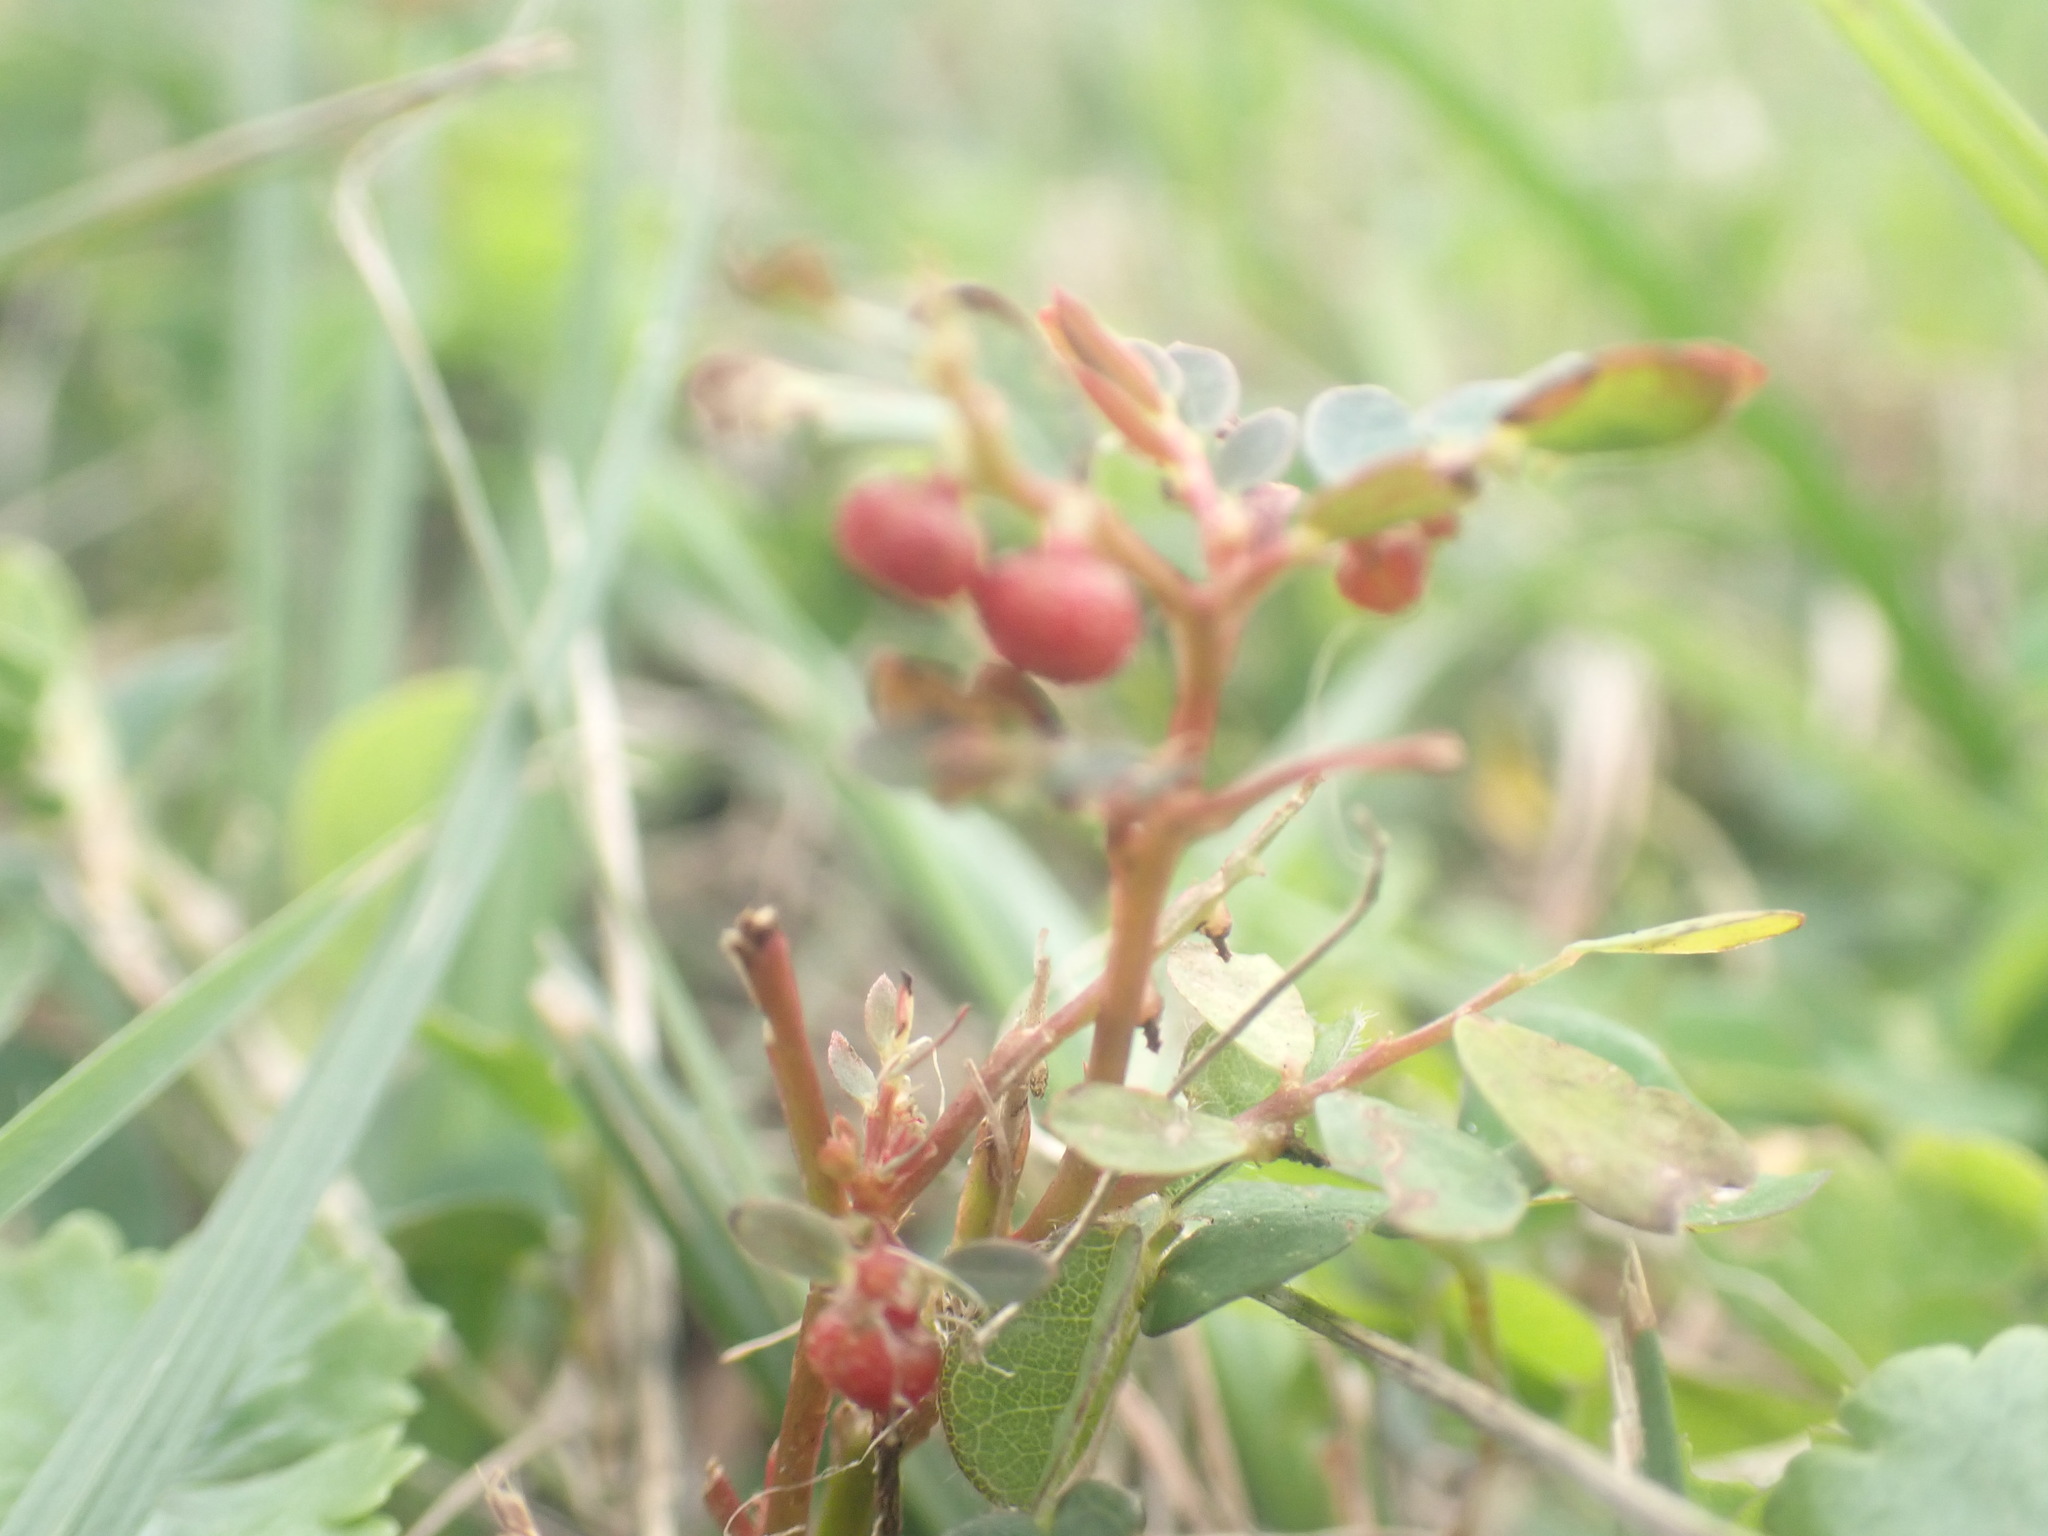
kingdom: Plantae
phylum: Tracheophyta
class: Magnoliopsida
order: Malpighiales
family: Phyllanthaceae
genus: Phyllanthus
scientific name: Phyllanthus urinaria
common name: Chamber bitter
